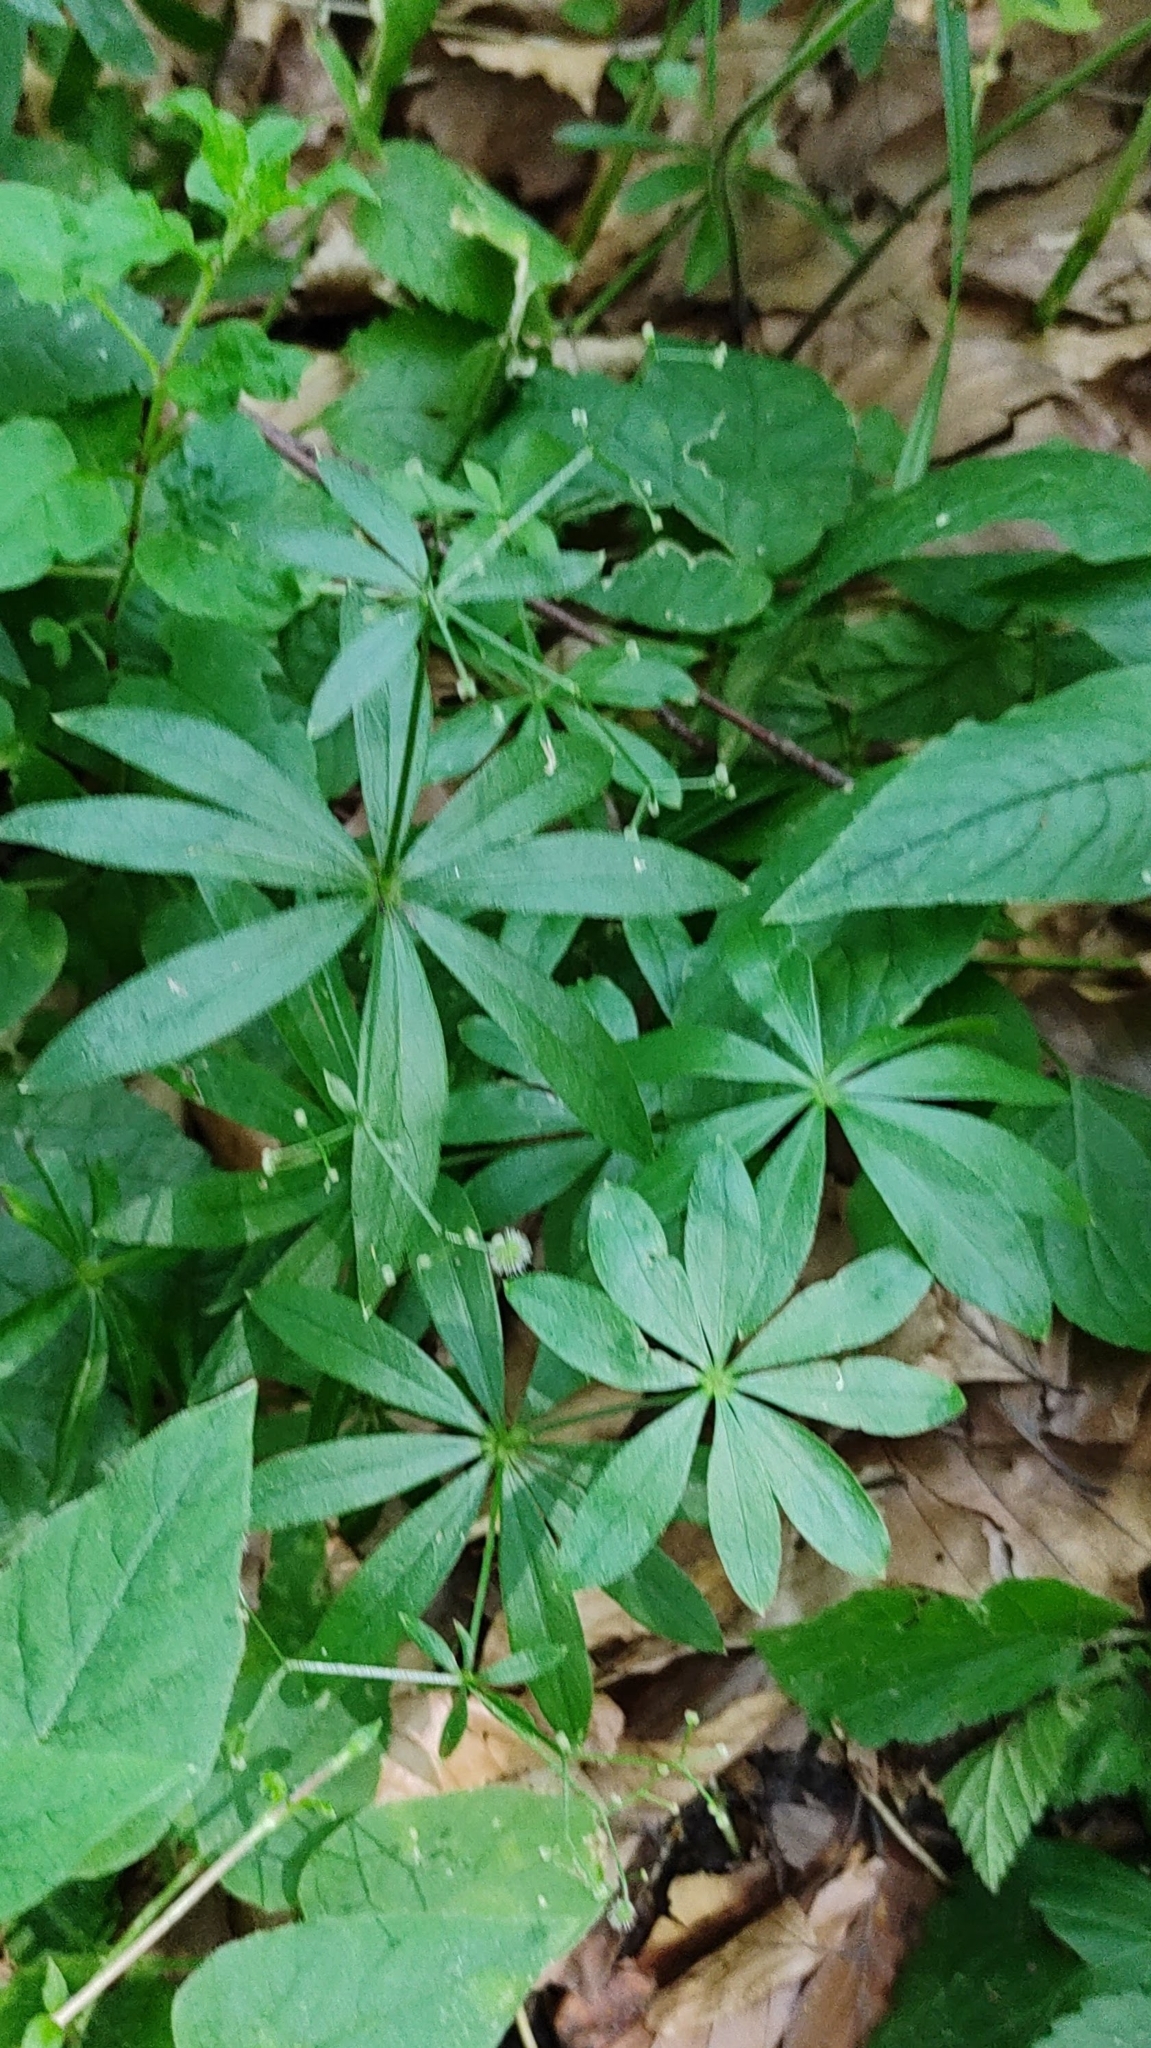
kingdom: Plantae
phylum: Tracheophyta
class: Magnoliopsida
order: Gentianales
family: Rubiaceae
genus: Galium
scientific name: Galium odoratum
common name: Sweet woodruff
